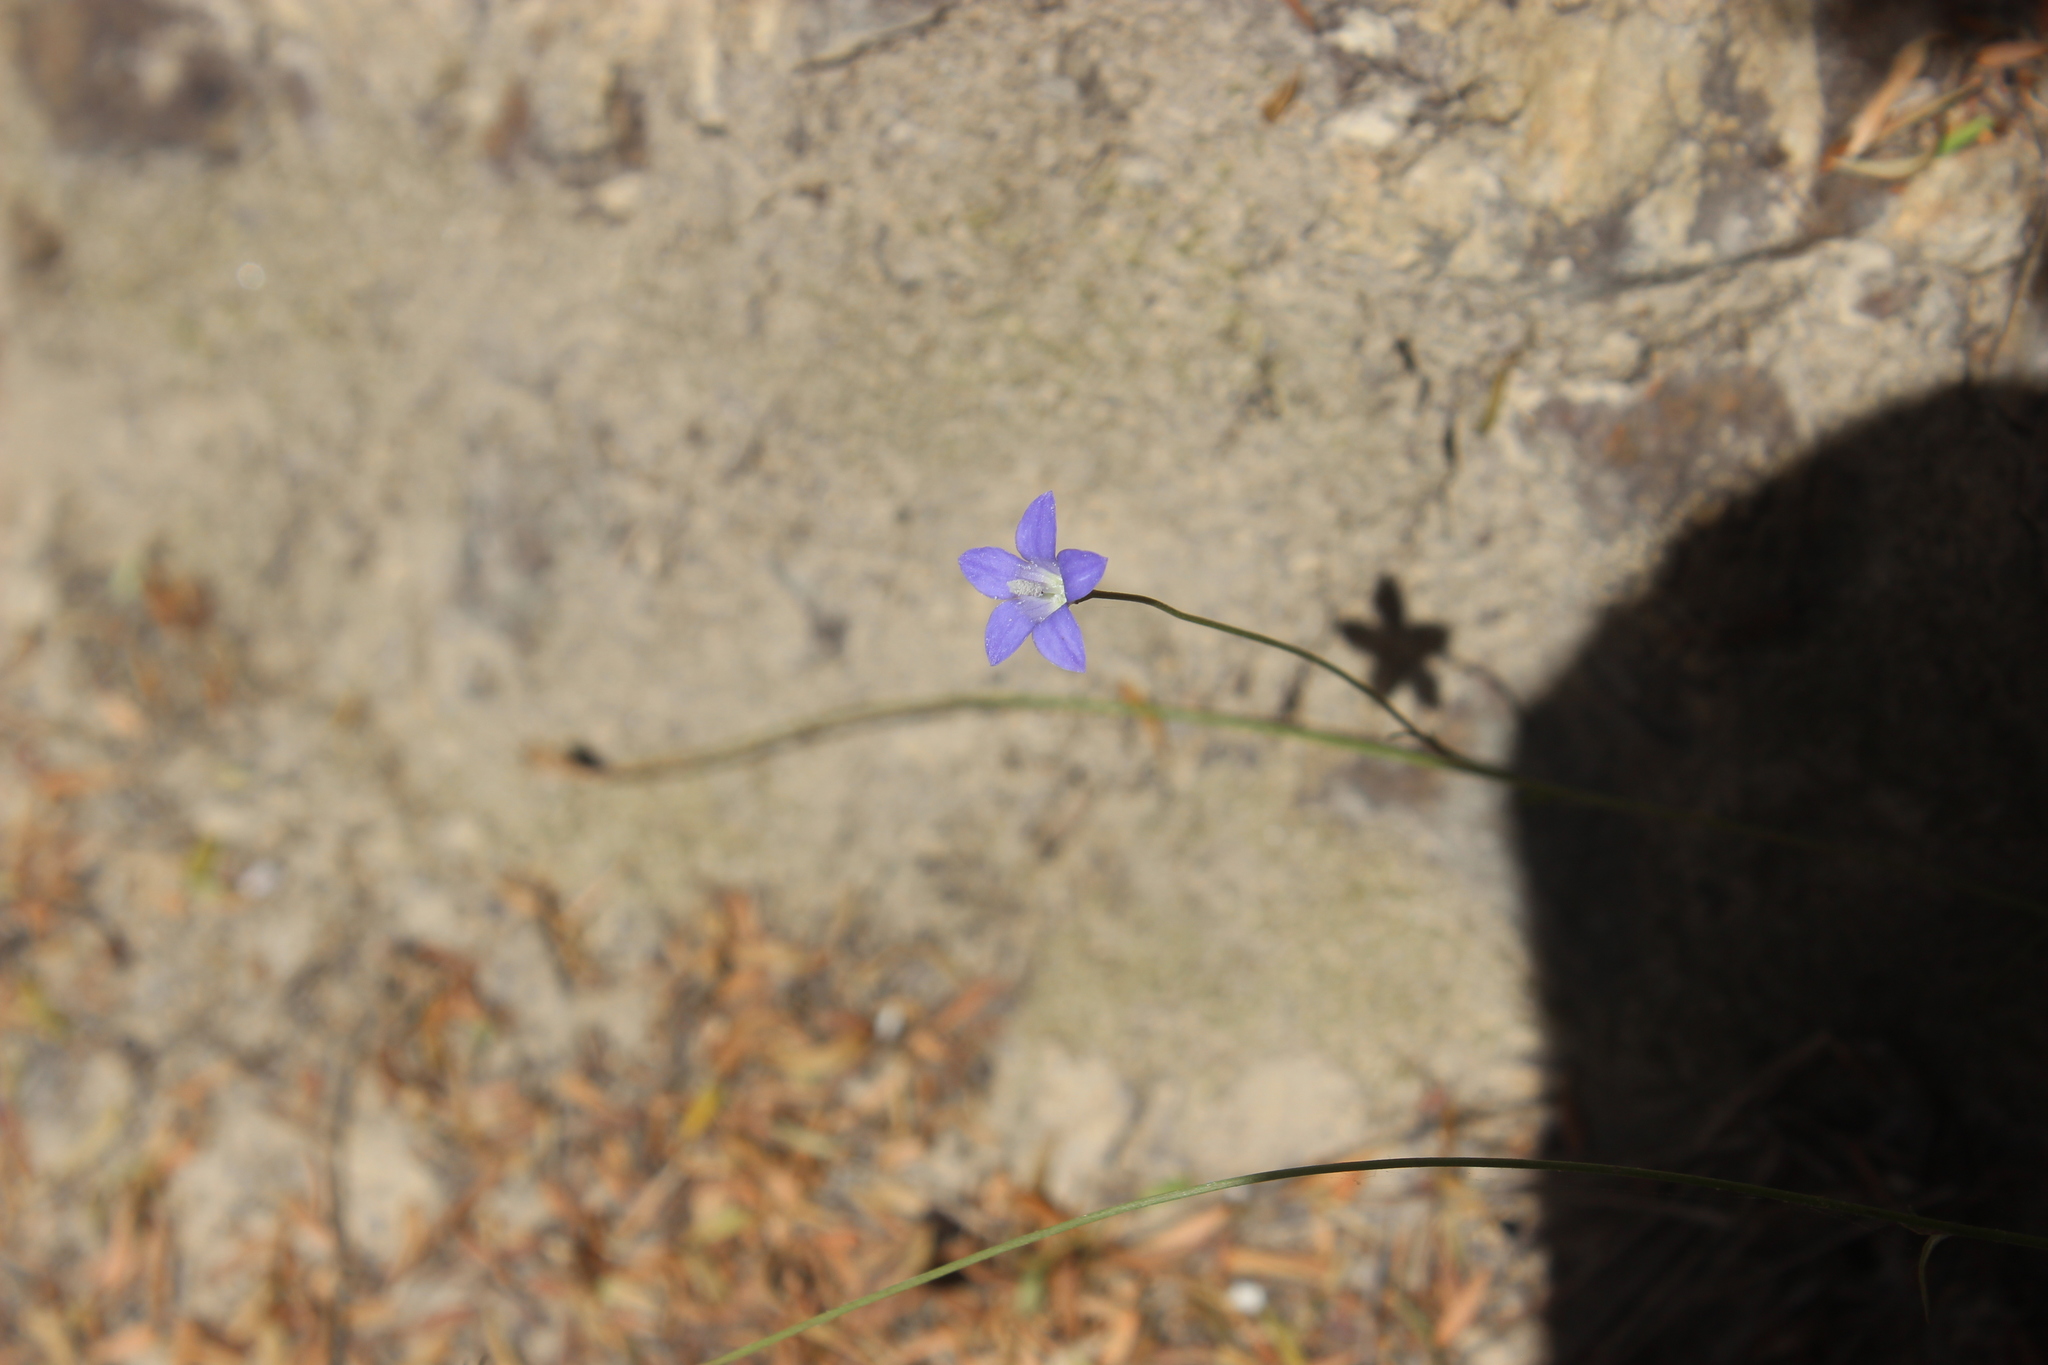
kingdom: Plantae
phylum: Tracheophyta
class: Magnoliopsida
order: Asterales
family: Campanulaceae
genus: Wahlenbergia
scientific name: Wahlenbergia violacea
